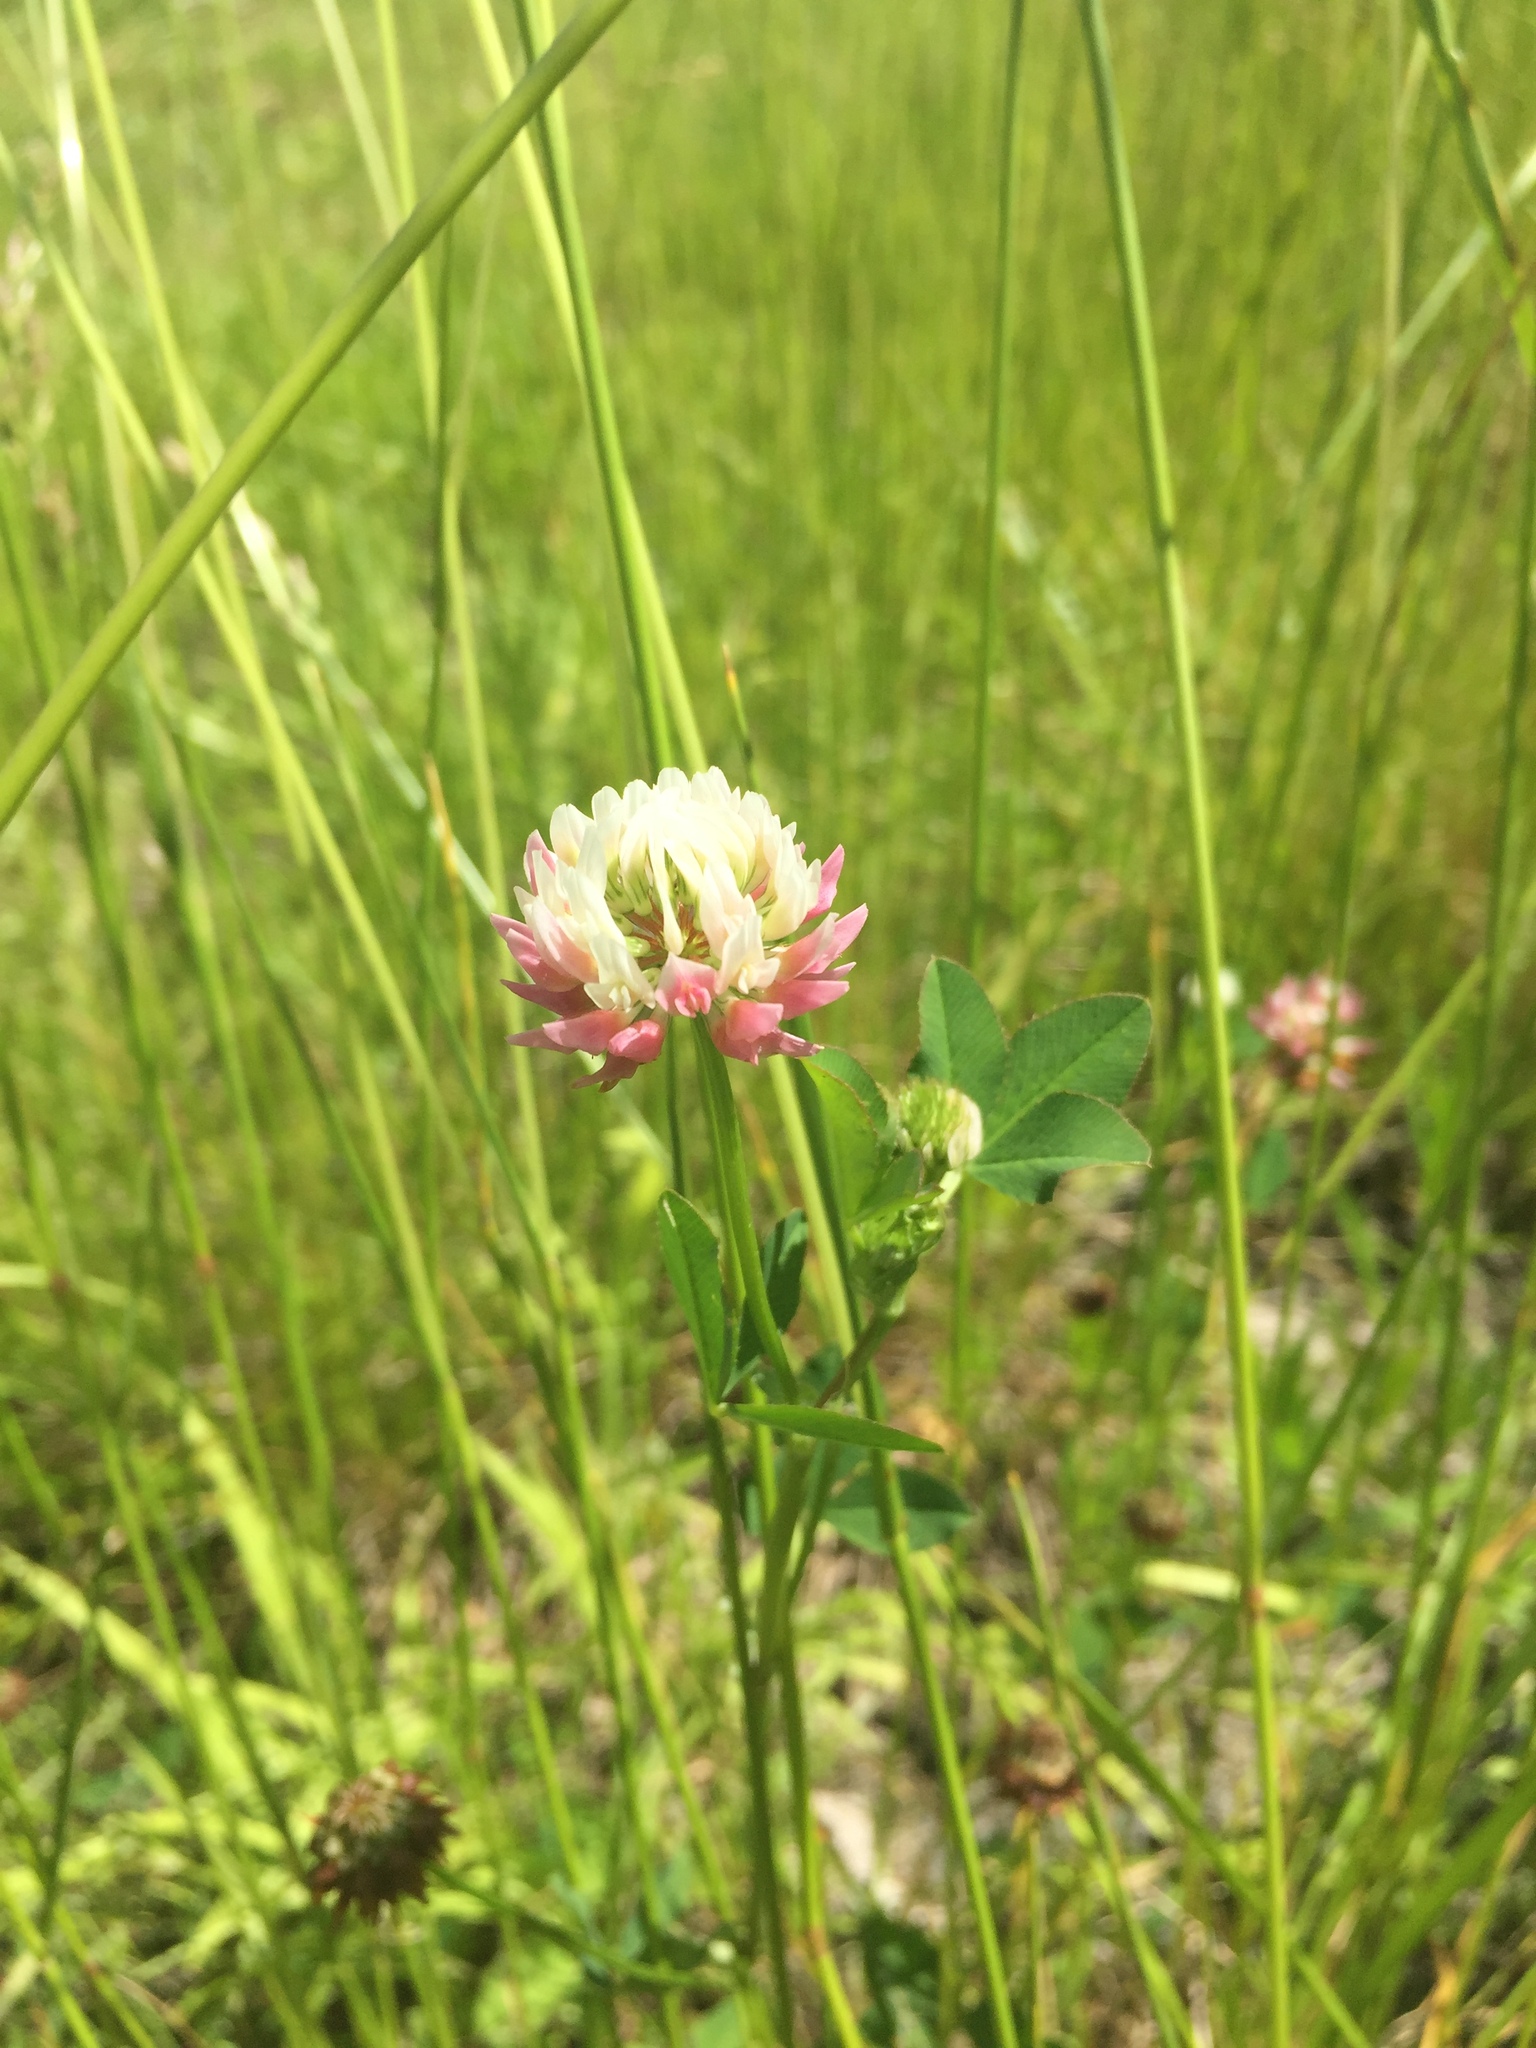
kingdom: Plantae
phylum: Tracheophyta
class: Magnoliopsida
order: Fabales
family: Fabaceae
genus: Trifolium
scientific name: Trifolium hybridum
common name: Alsike clover
